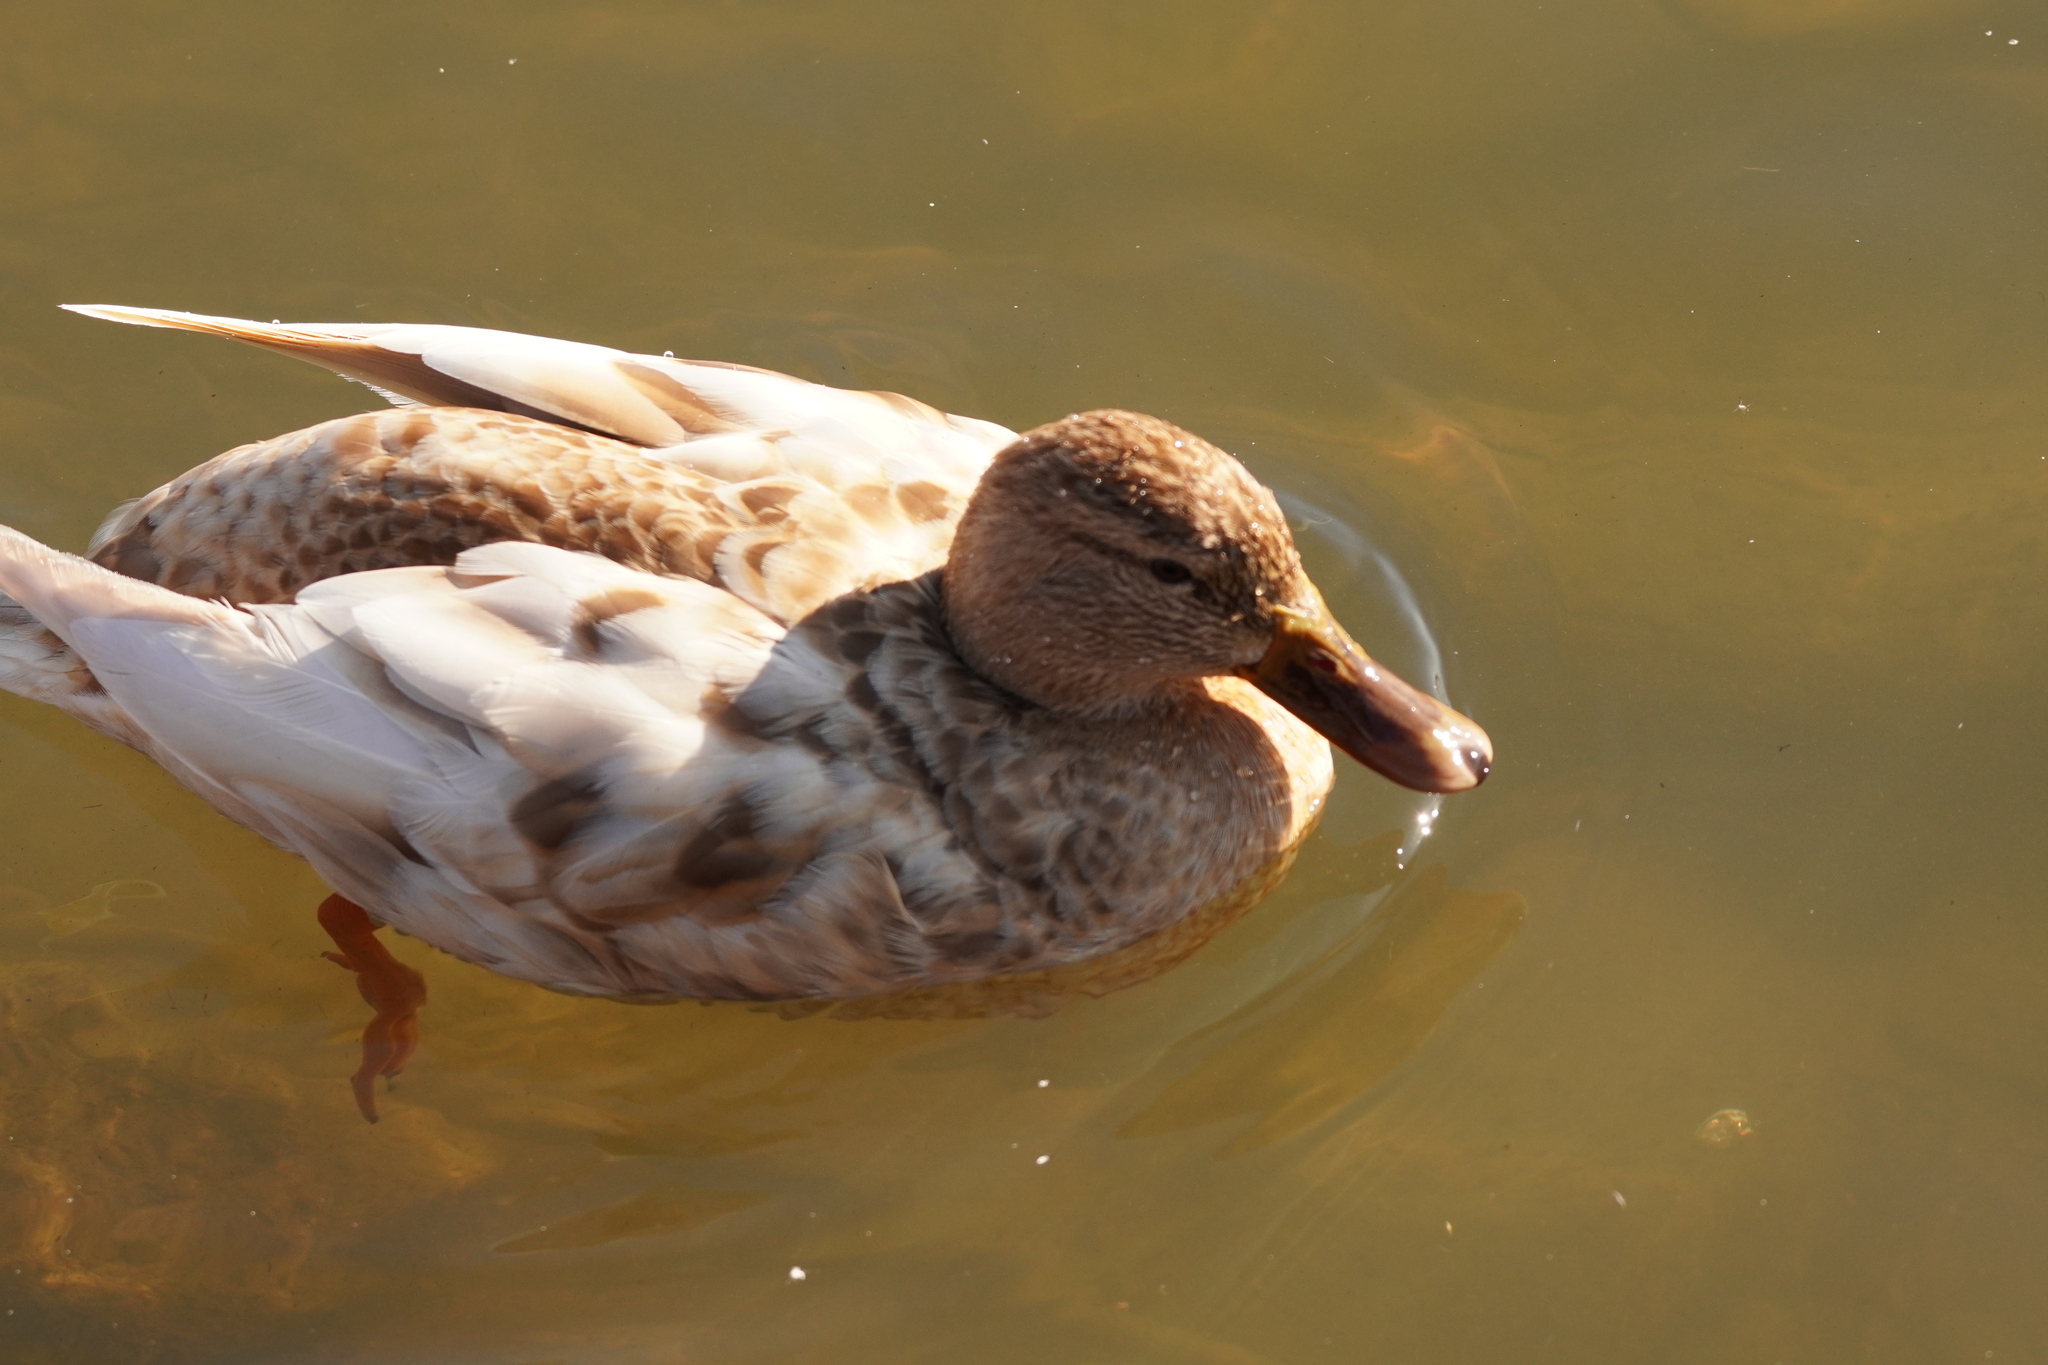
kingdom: Animalia
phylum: Chordata
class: Aves
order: Anseriformes
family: Anatidae
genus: Anas
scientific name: Anas platyrhynchos
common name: Mallard
